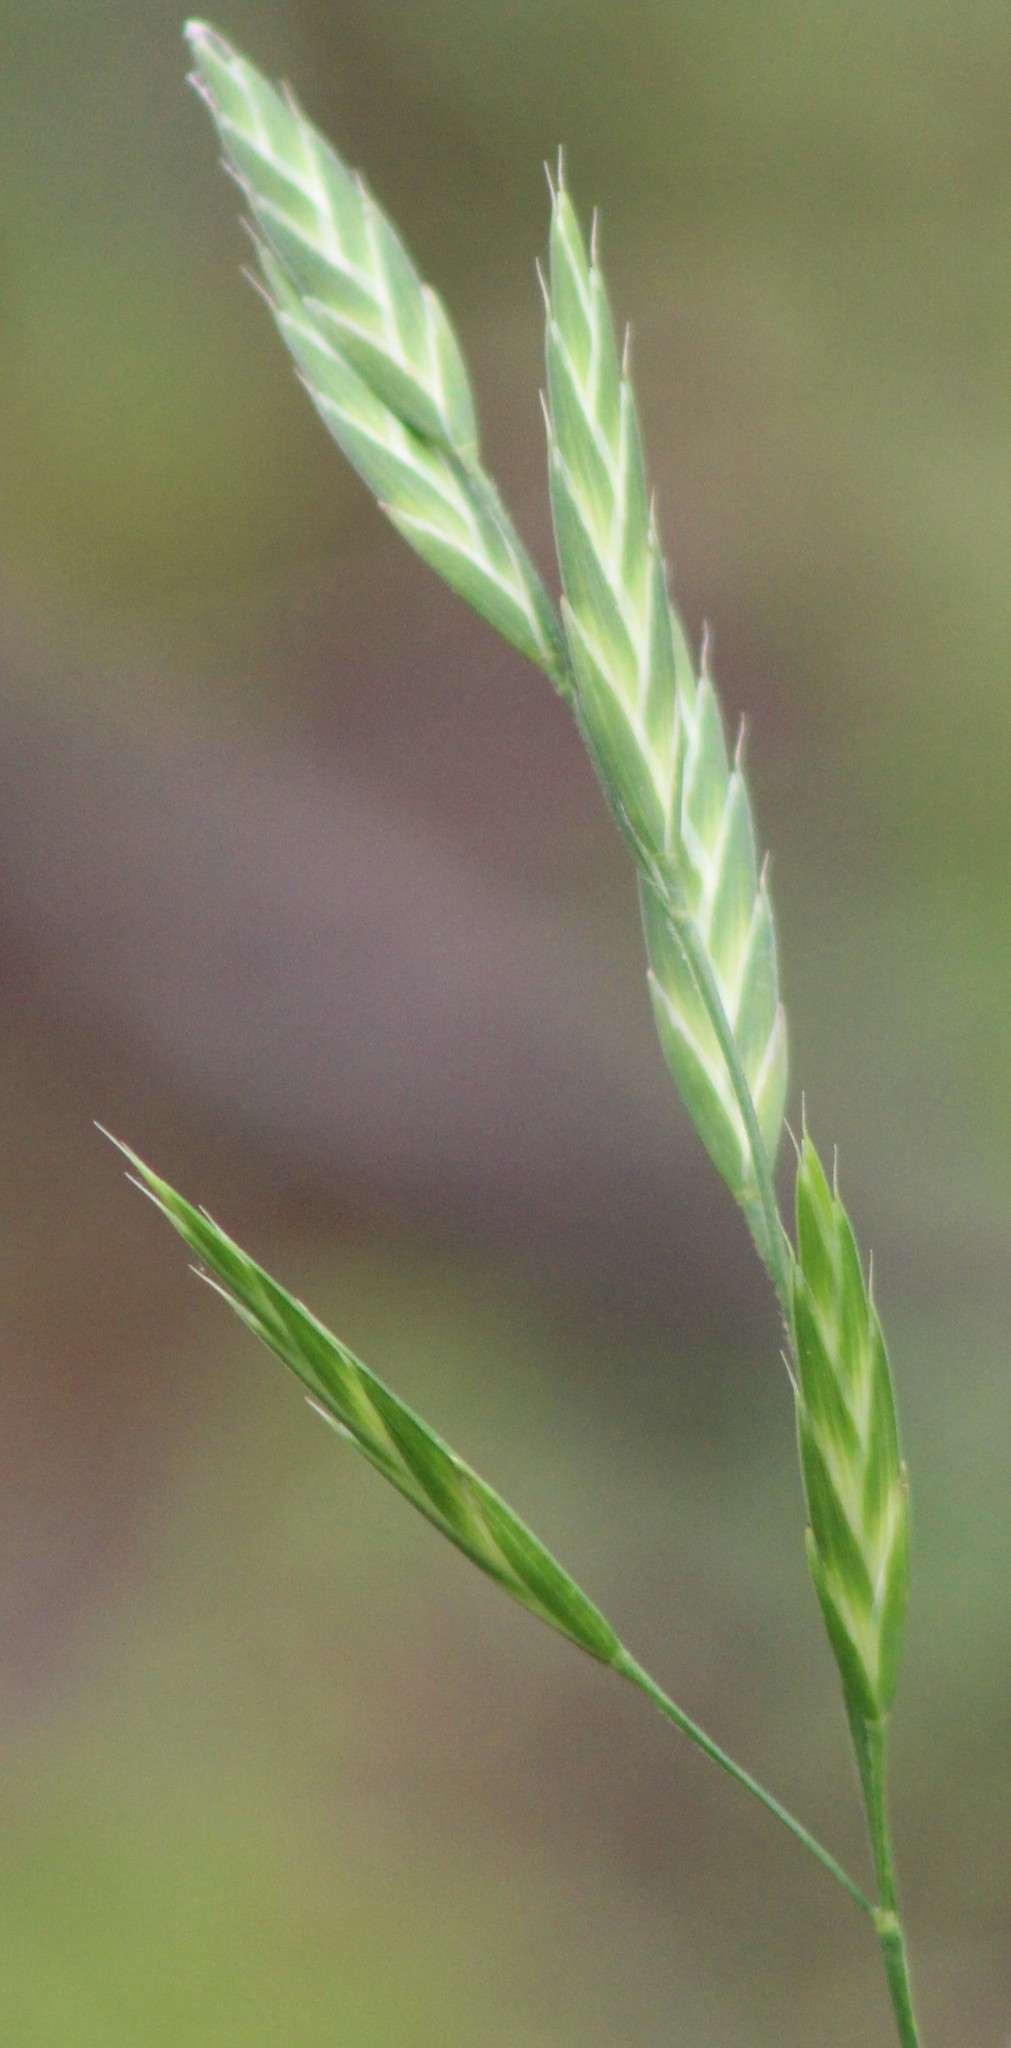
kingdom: Plantae
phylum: Tracheophyta
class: Liliopsida
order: Poales
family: Poaceae
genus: Bromus
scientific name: Bromus catharticus
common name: Rescuegrass
